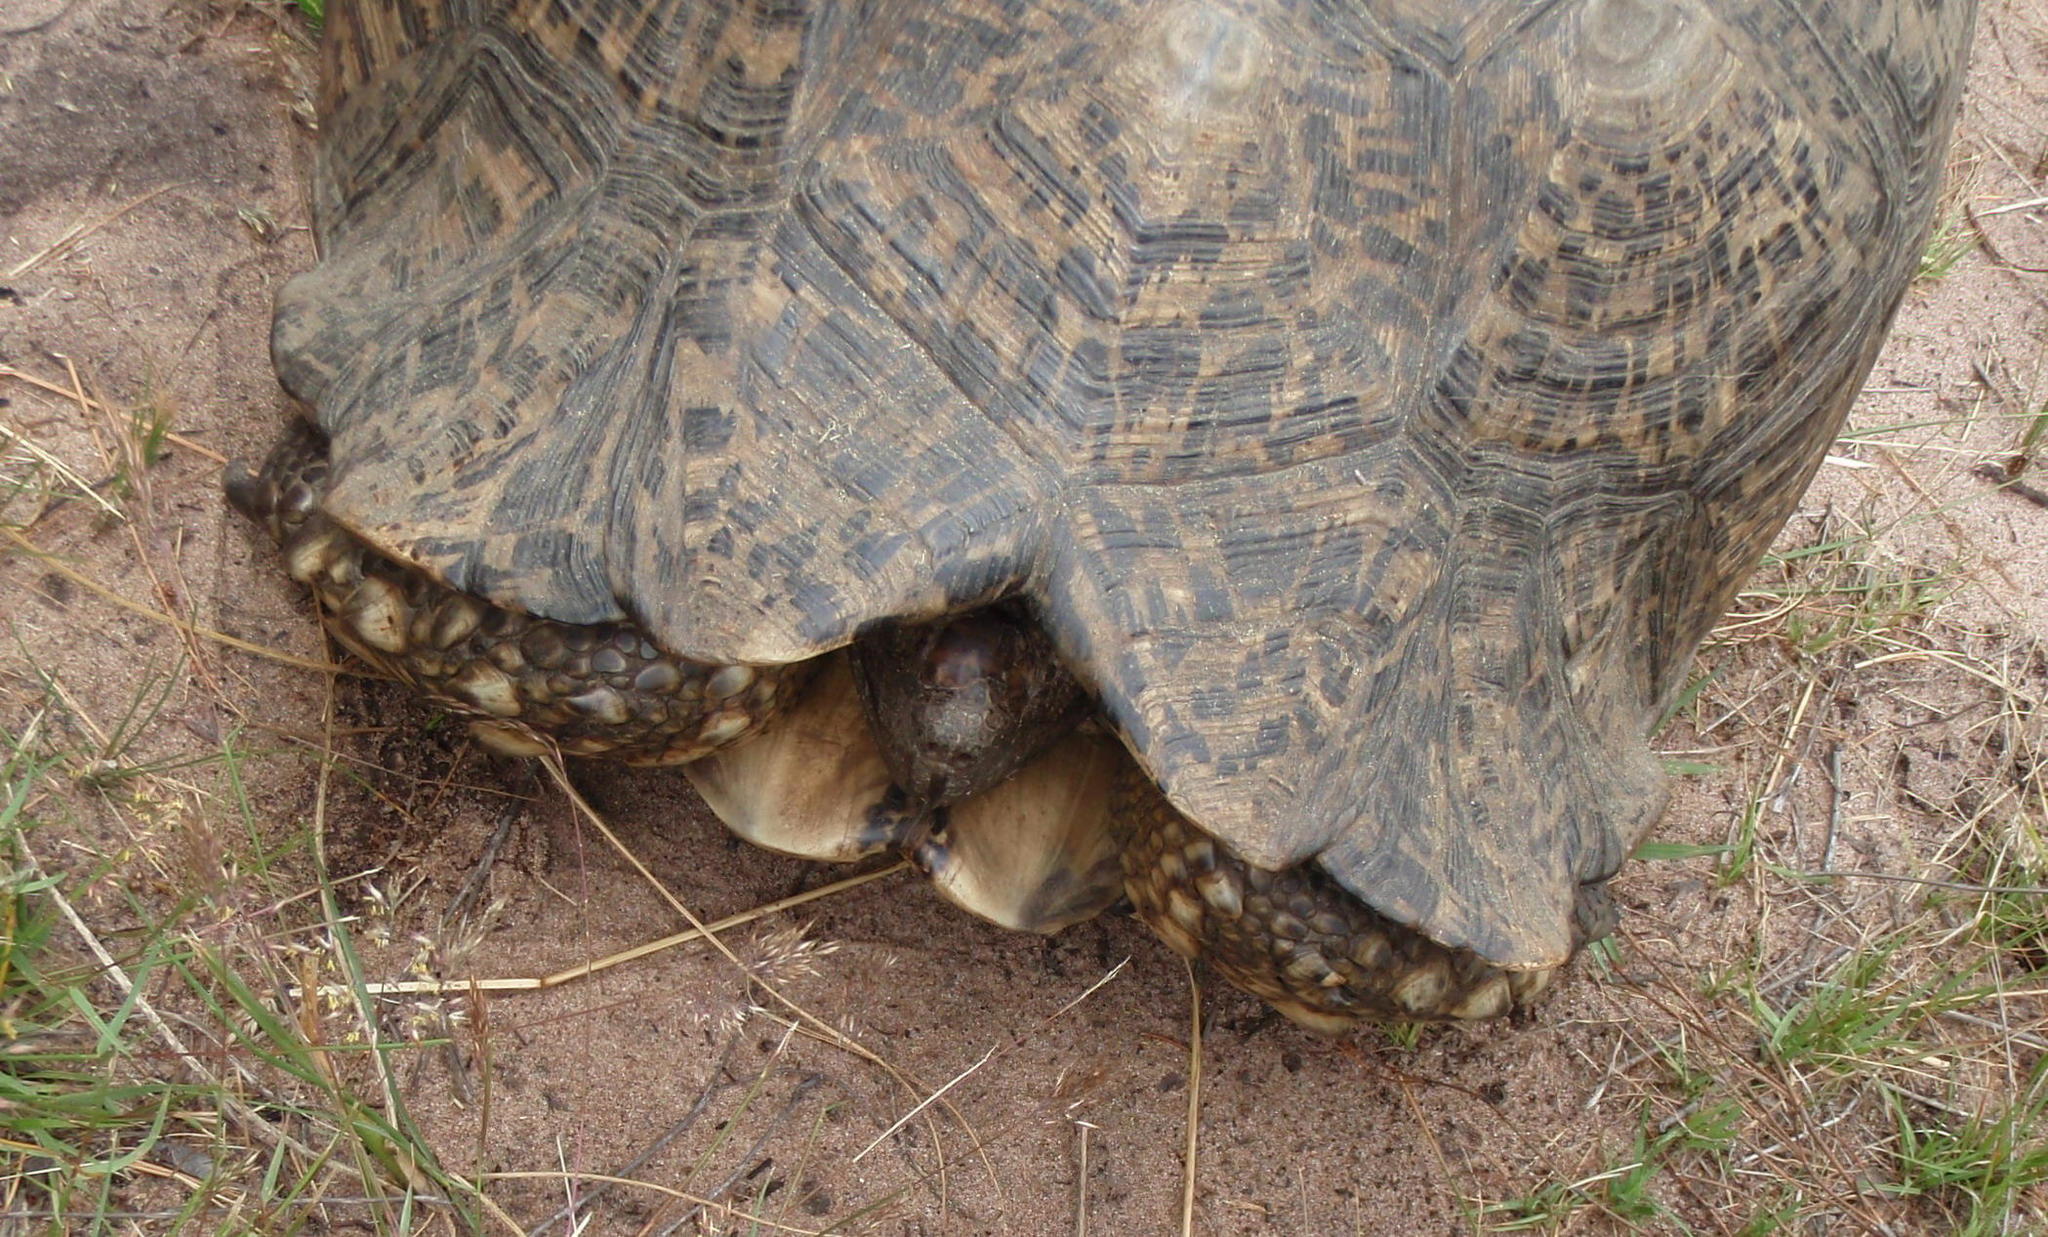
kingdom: Animalia
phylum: Chordata
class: Testudines
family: Testudinidae
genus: Stigmochelys
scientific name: Stigmochelys pardalis
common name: Leopard tortoise
